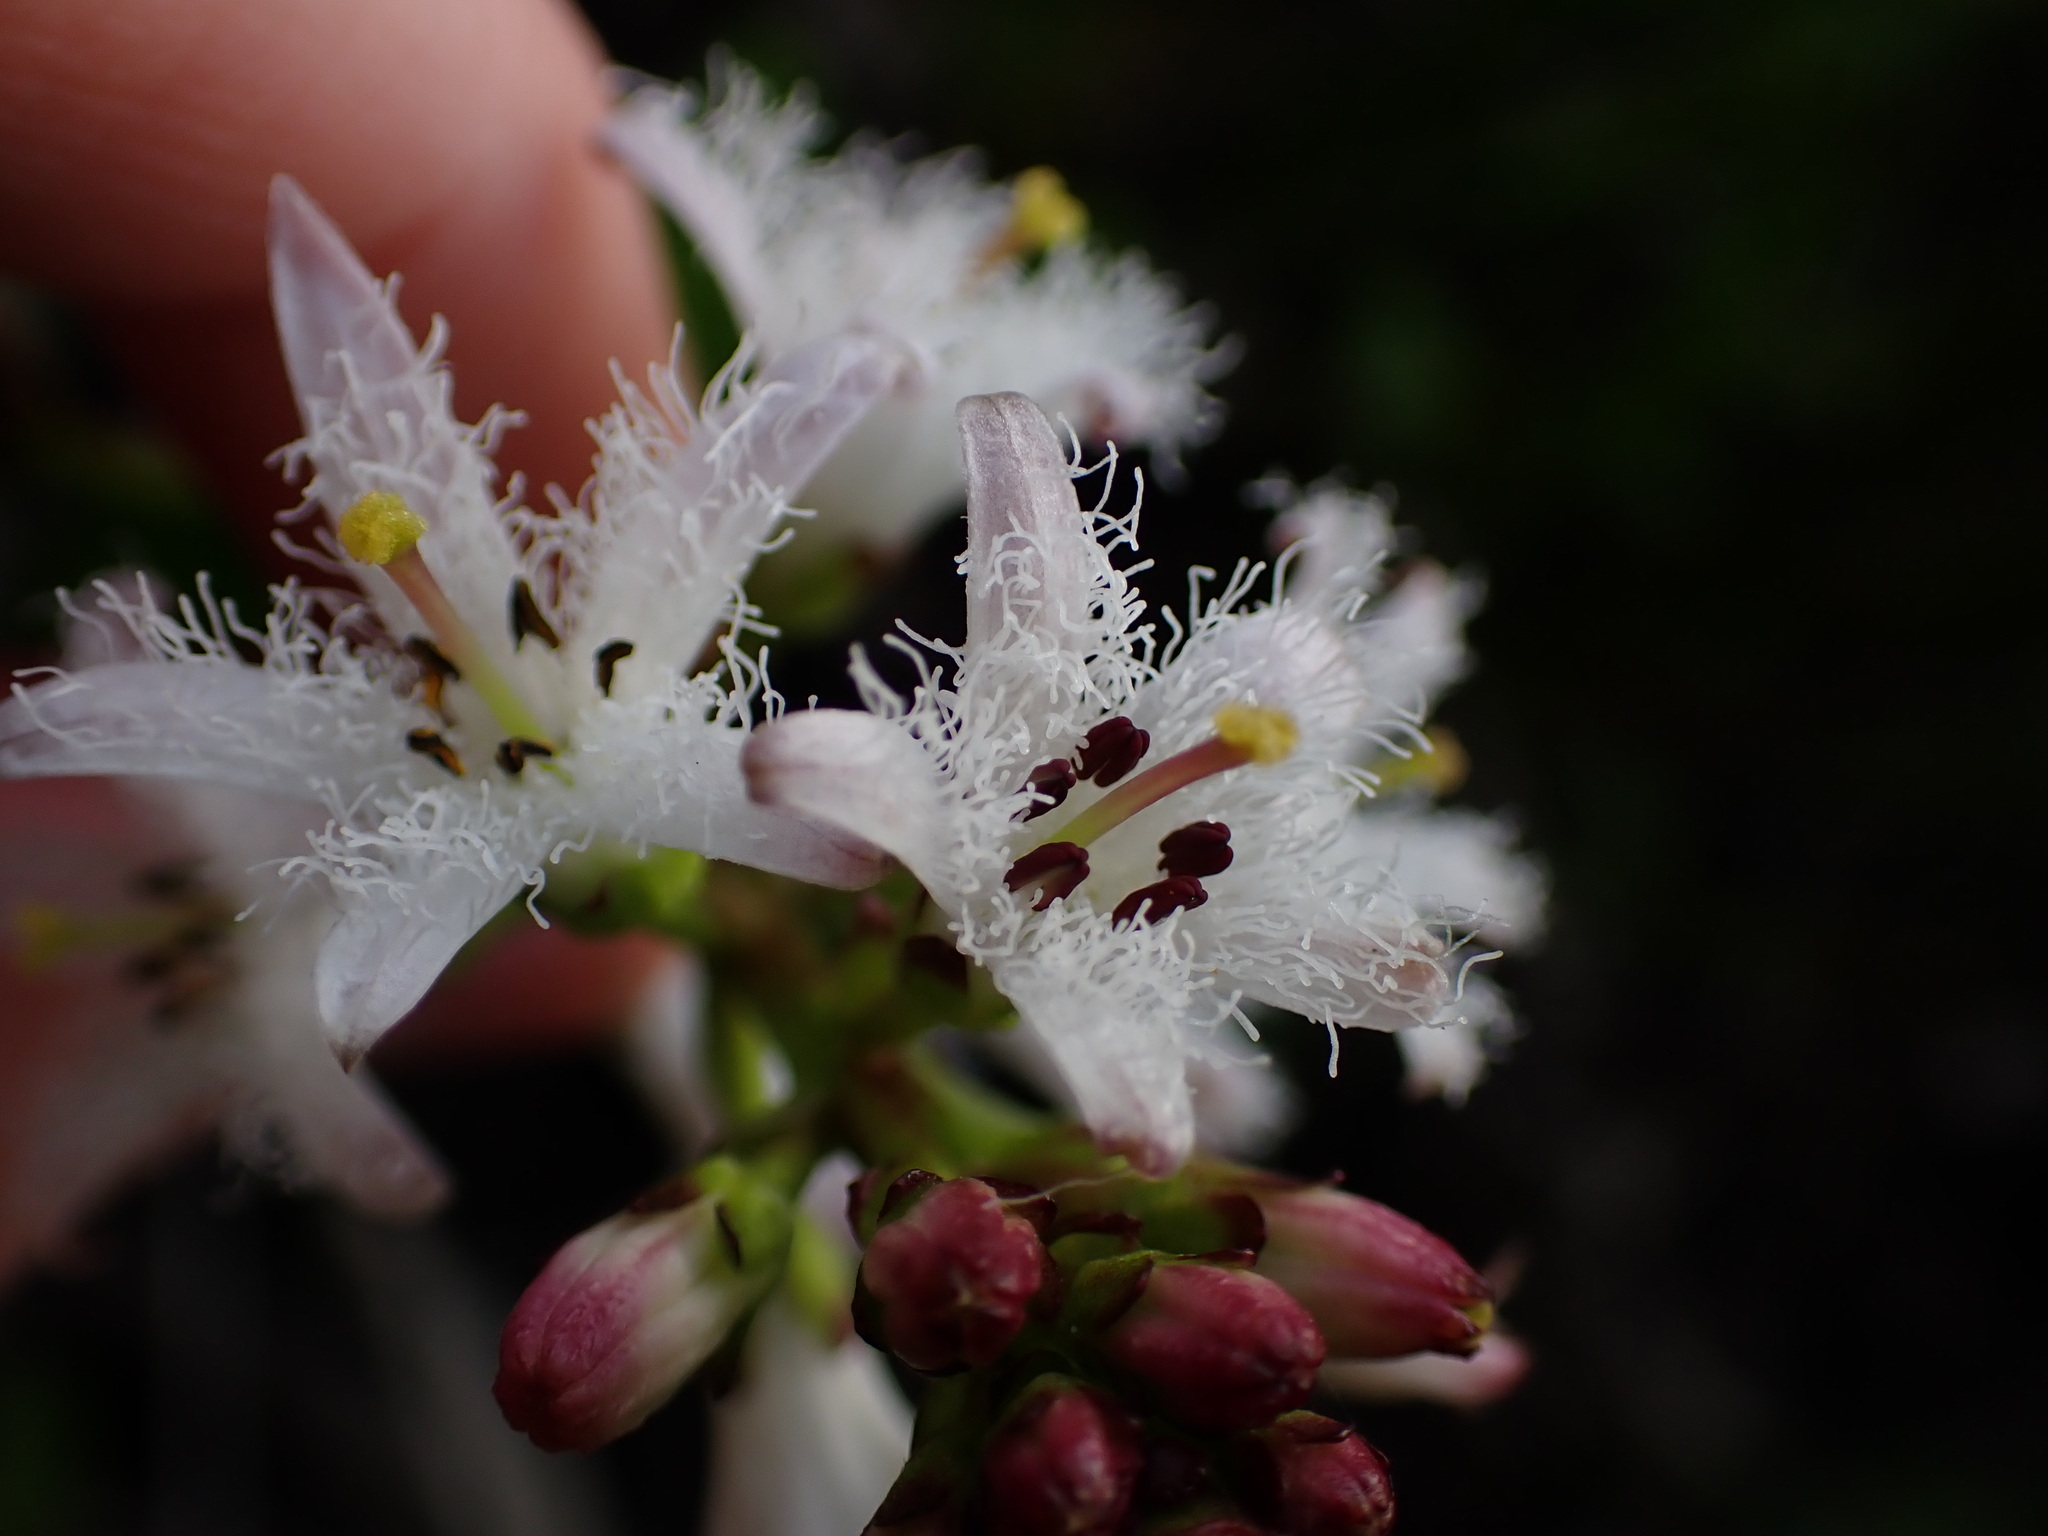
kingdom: Plantae
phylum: Tracheophyta
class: Magnoliopsida
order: Asterales
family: Menyanthaceae
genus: Menyanthes
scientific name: Menyanthes trifoliata
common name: Bogbean
